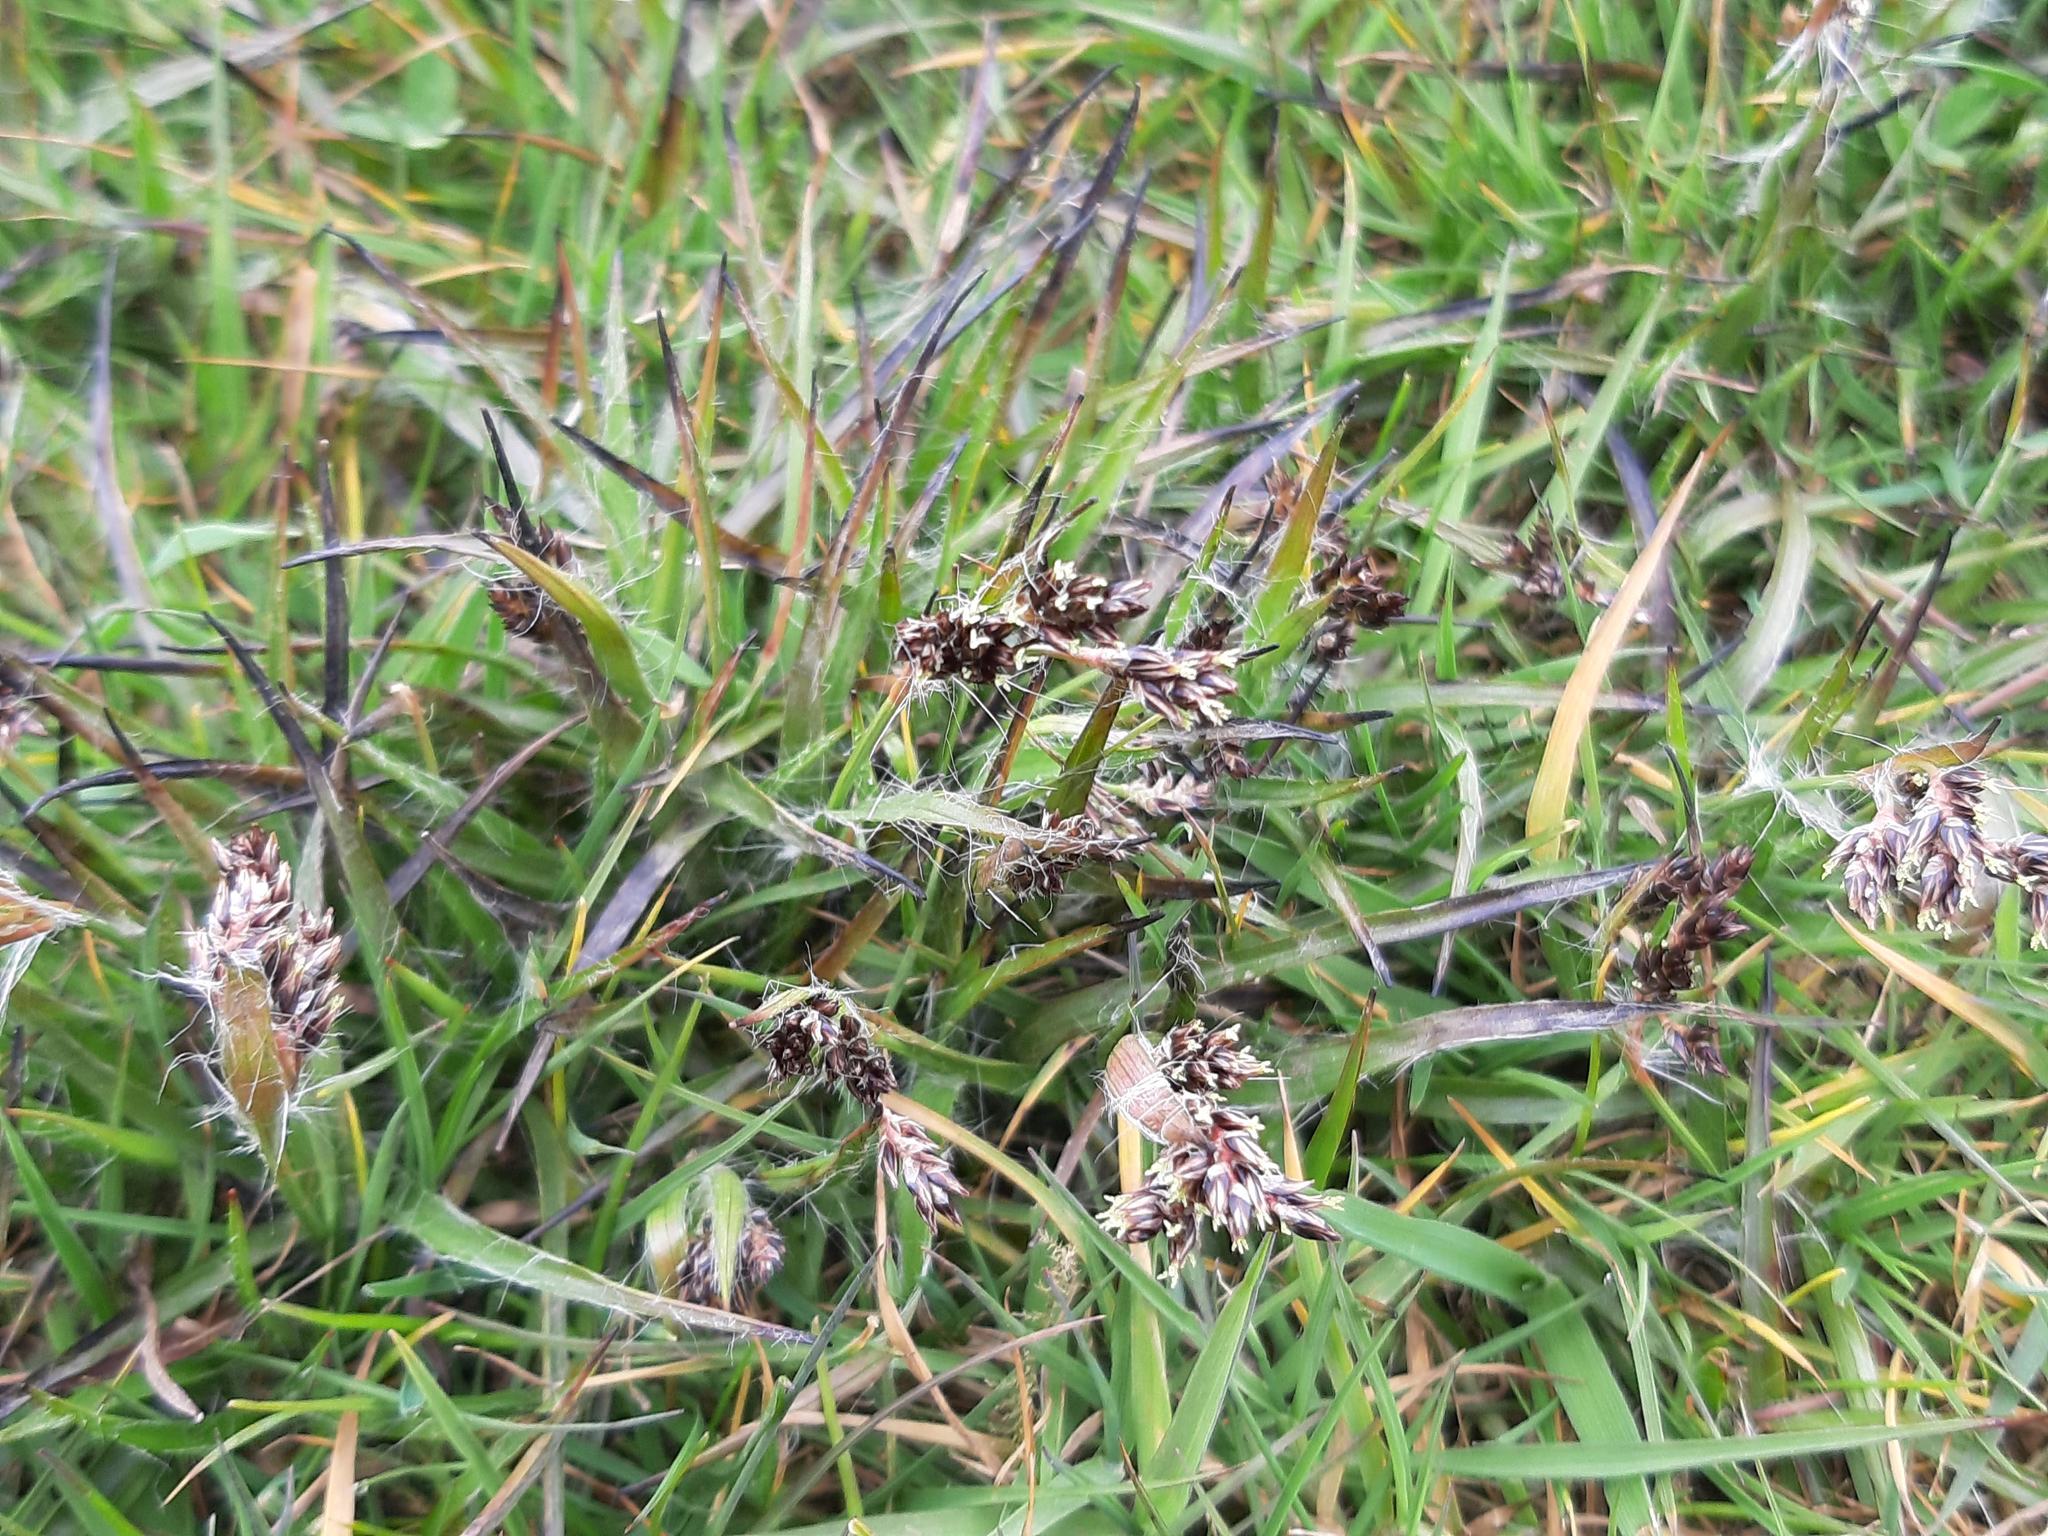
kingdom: Plantae
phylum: Tracheophyta
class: Liliopsida
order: Poales
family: Juncaceae
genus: Luzula
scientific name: Luzula campestris
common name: Field wood-rush
